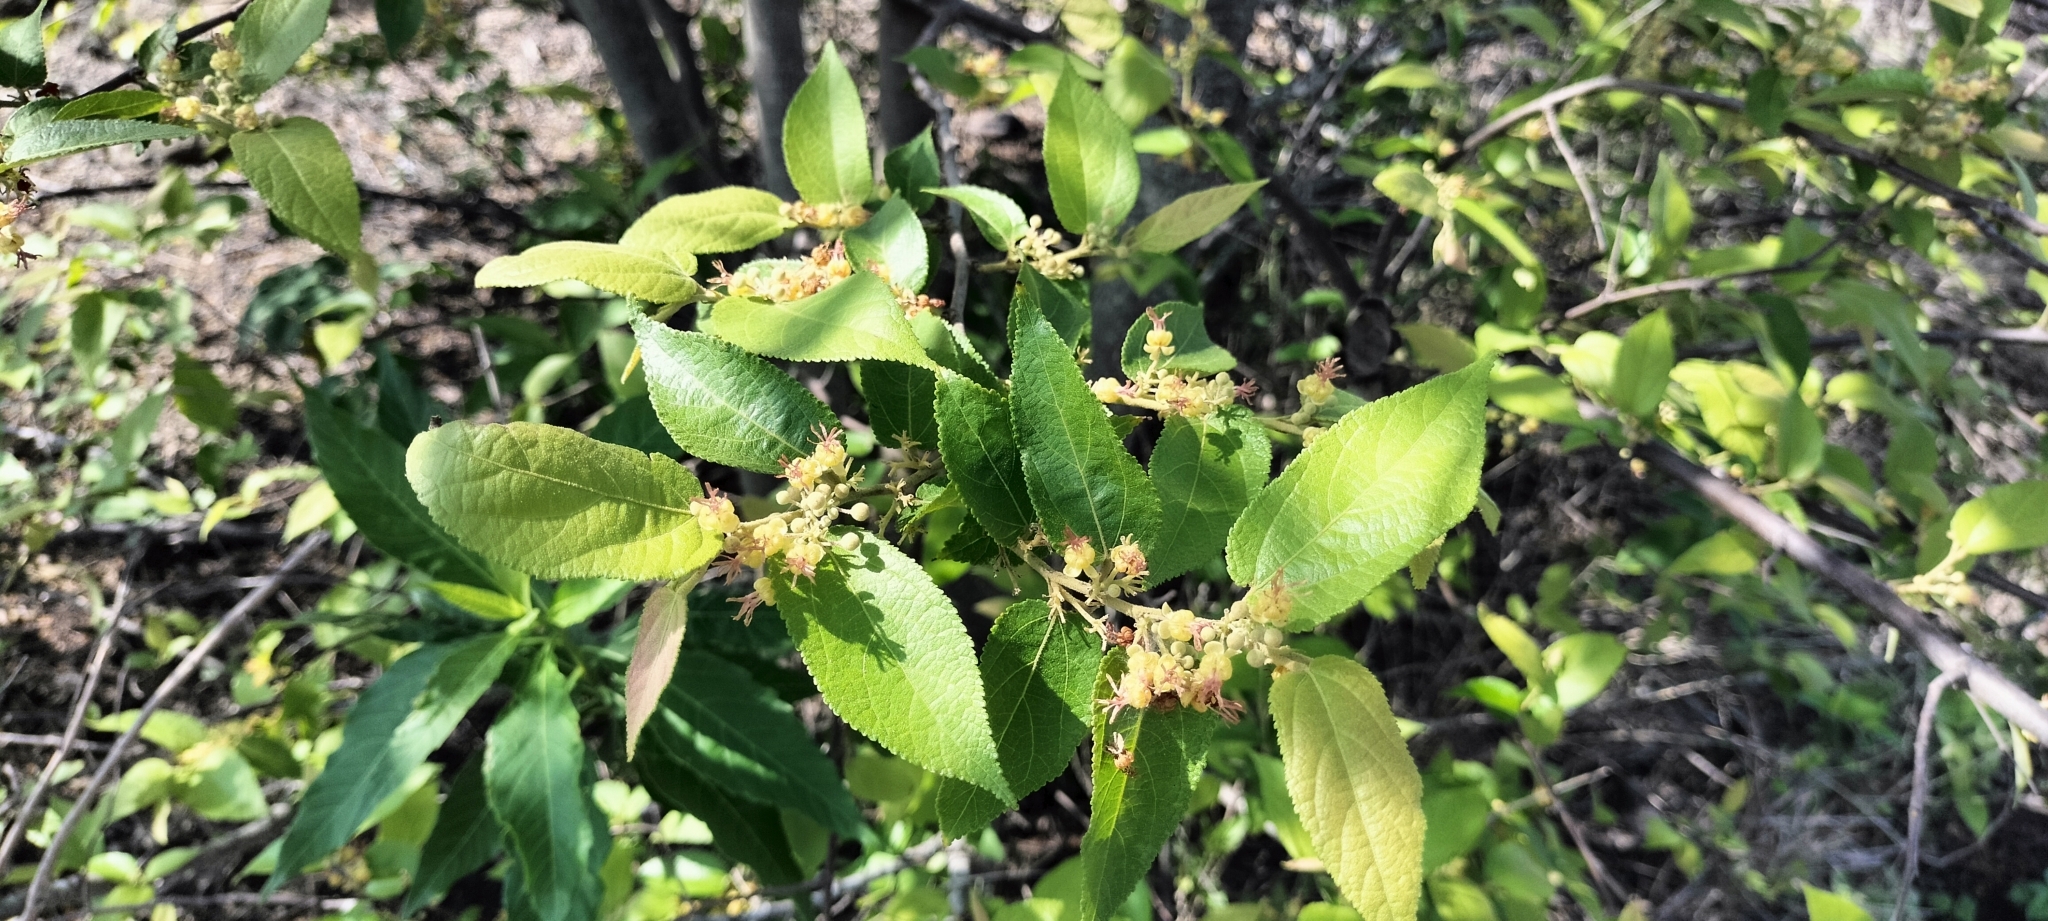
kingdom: Plantae
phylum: Tracheophyta
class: Magnoliopsida
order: Malvales
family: Malvaceae
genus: Guazuma
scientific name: Guazuma ulmifolia
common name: Bastard-cedar
